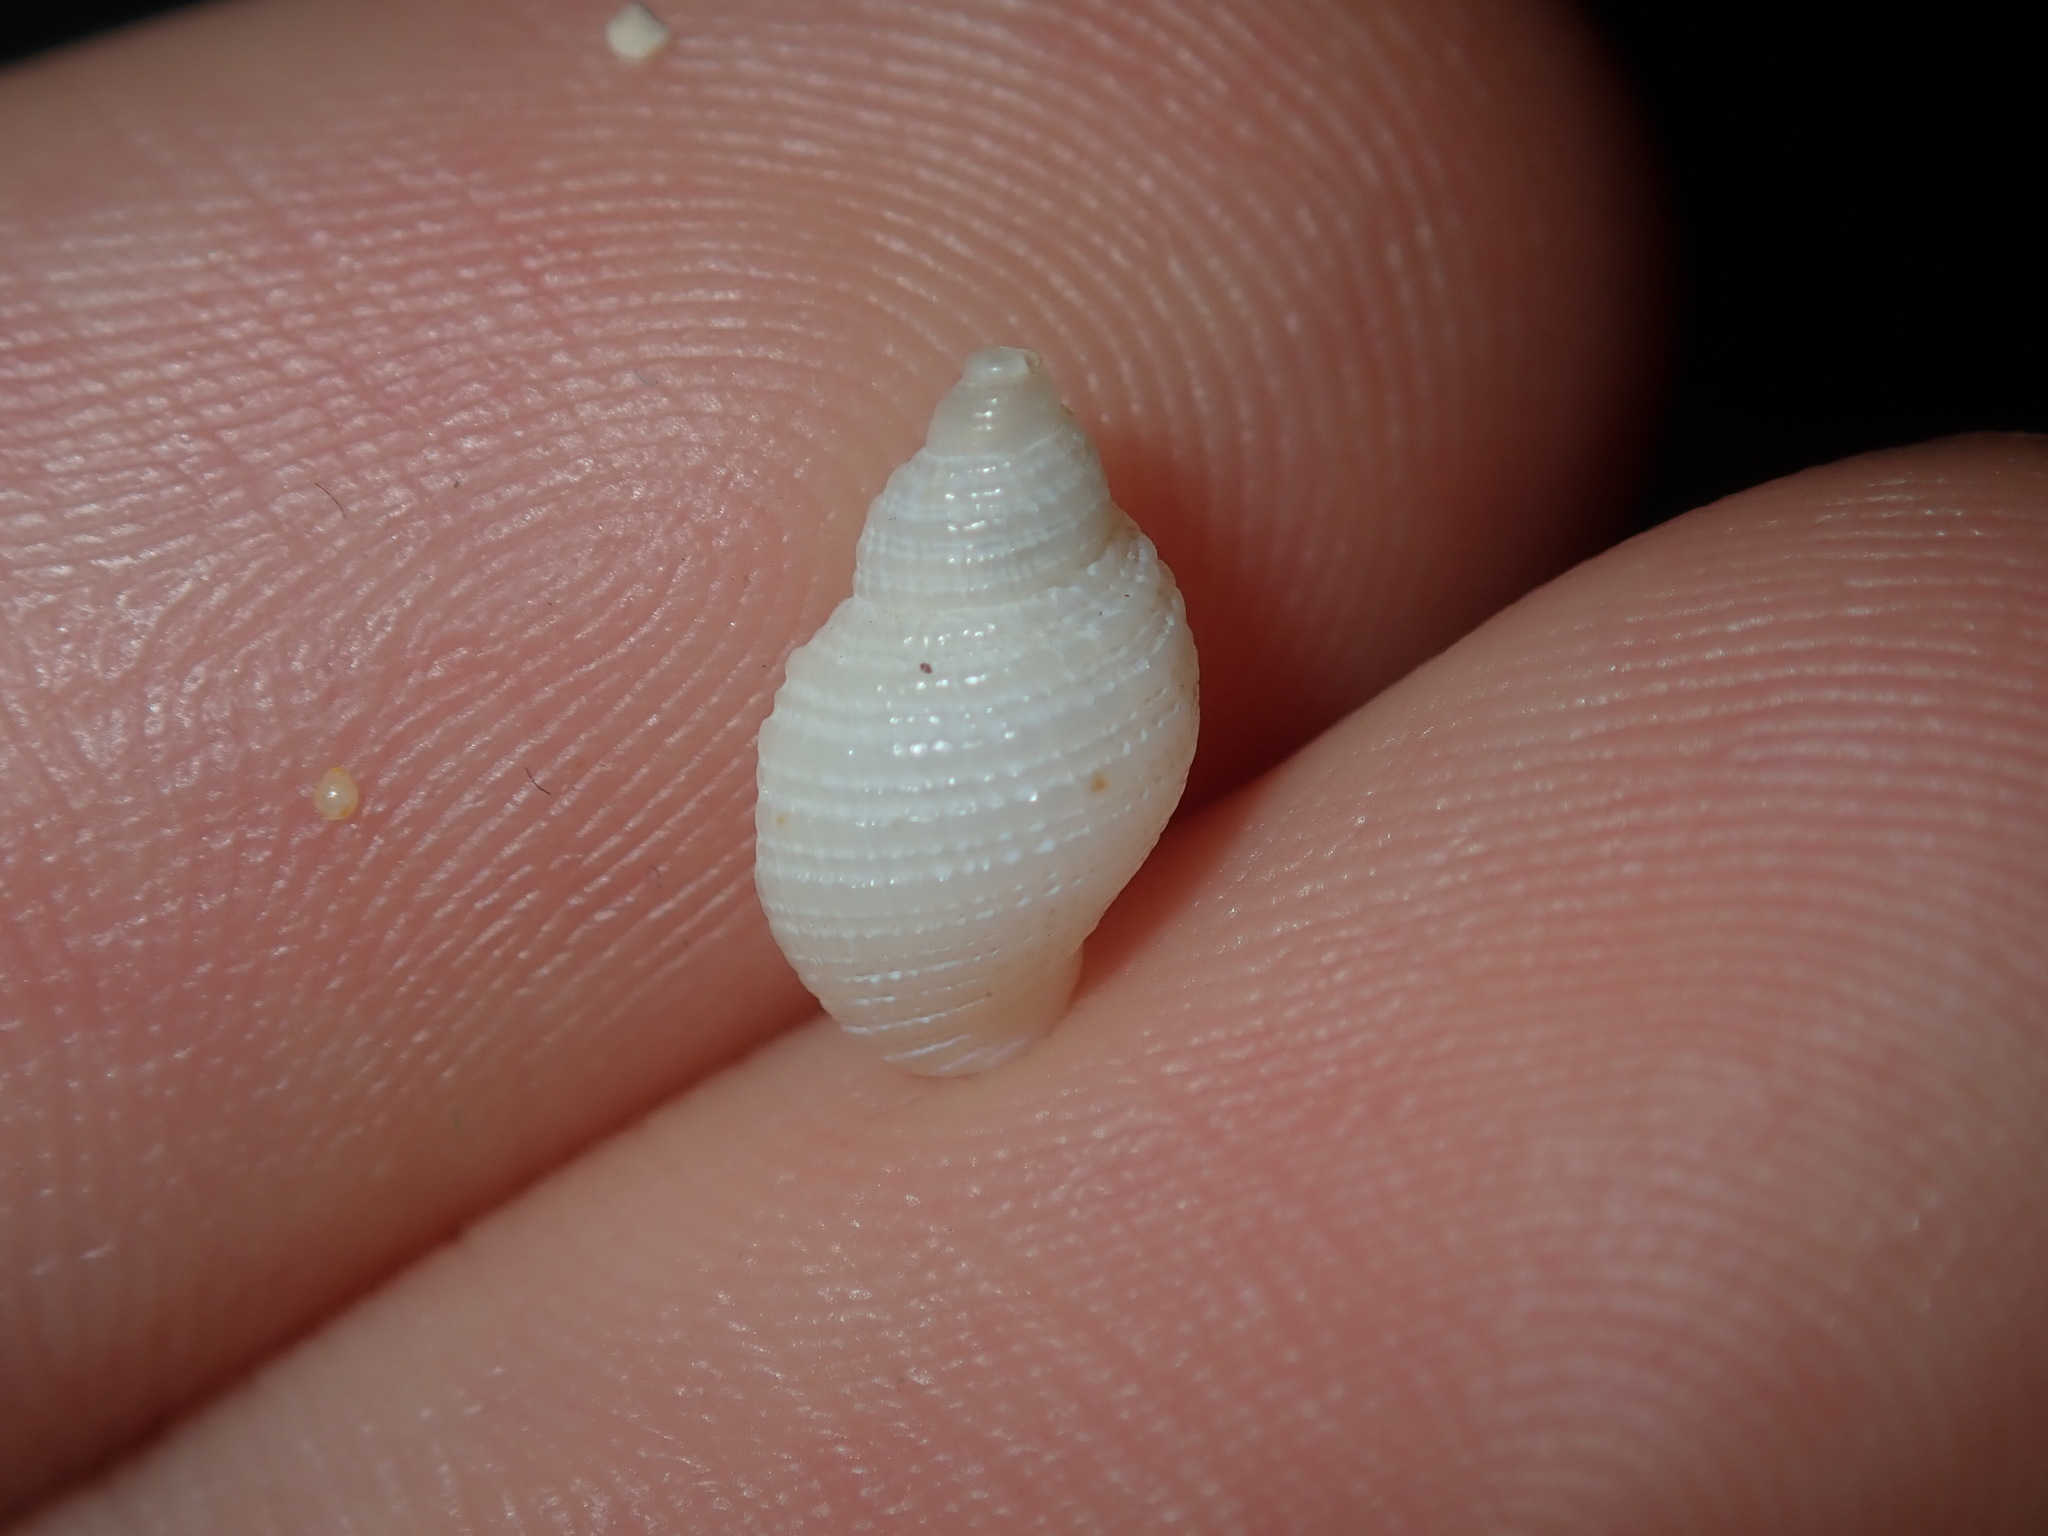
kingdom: Animalia
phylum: Mollusca
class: Gastropoda
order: Neogastropoda
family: Muricidae
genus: Dicathais
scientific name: Dicathais orbita
